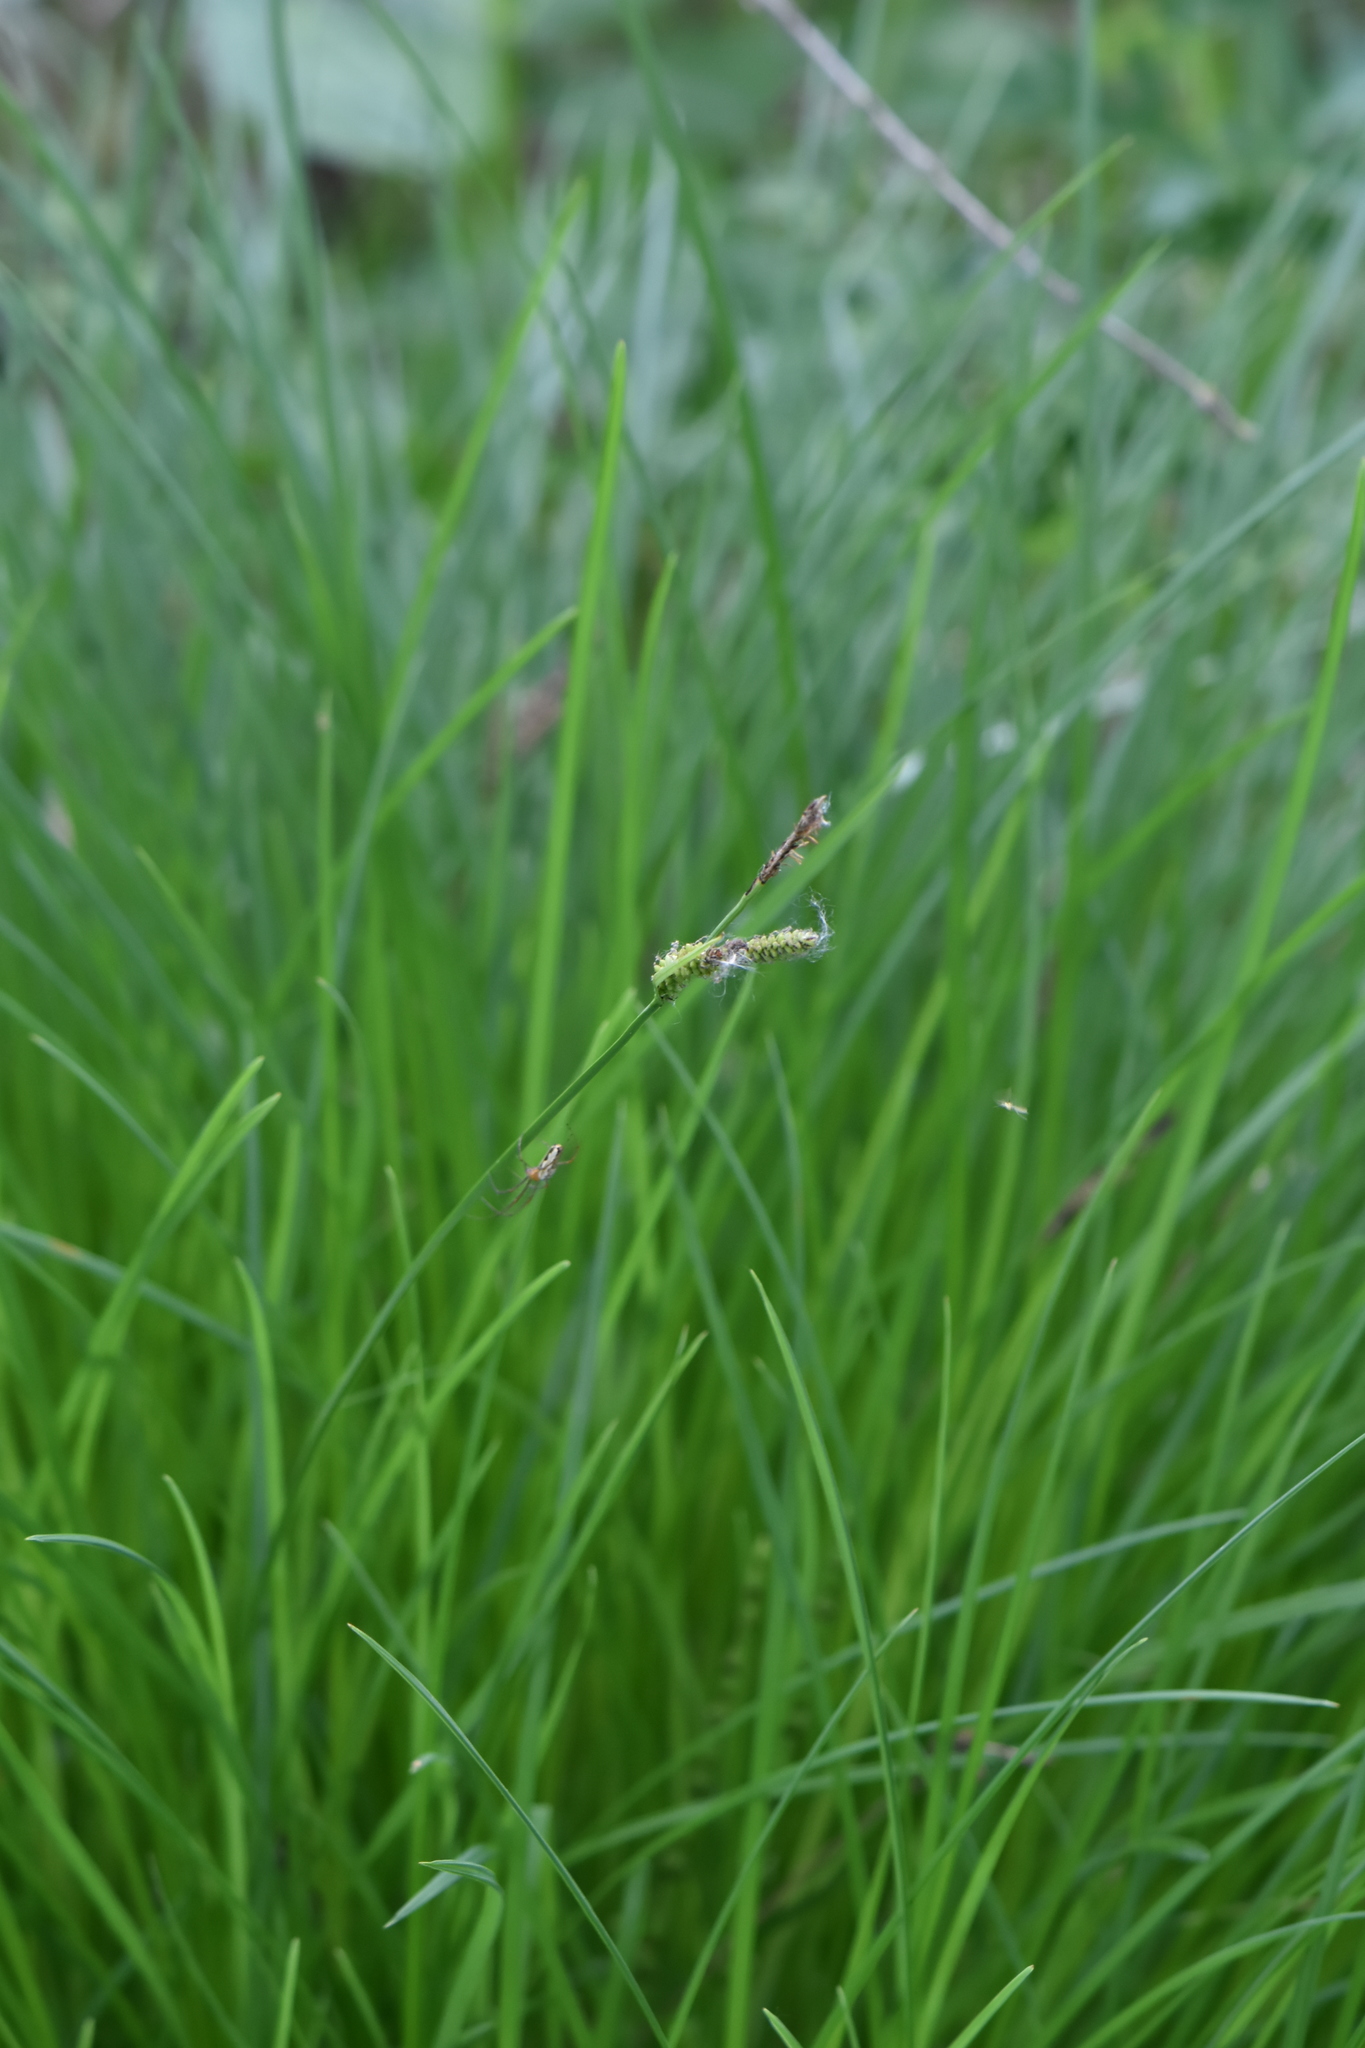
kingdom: Plantae
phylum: Tracheophyta
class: Liliopsida
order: Poales
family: Cyperaceae
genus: Carex
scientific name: Carex nigra
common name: Common sedge
